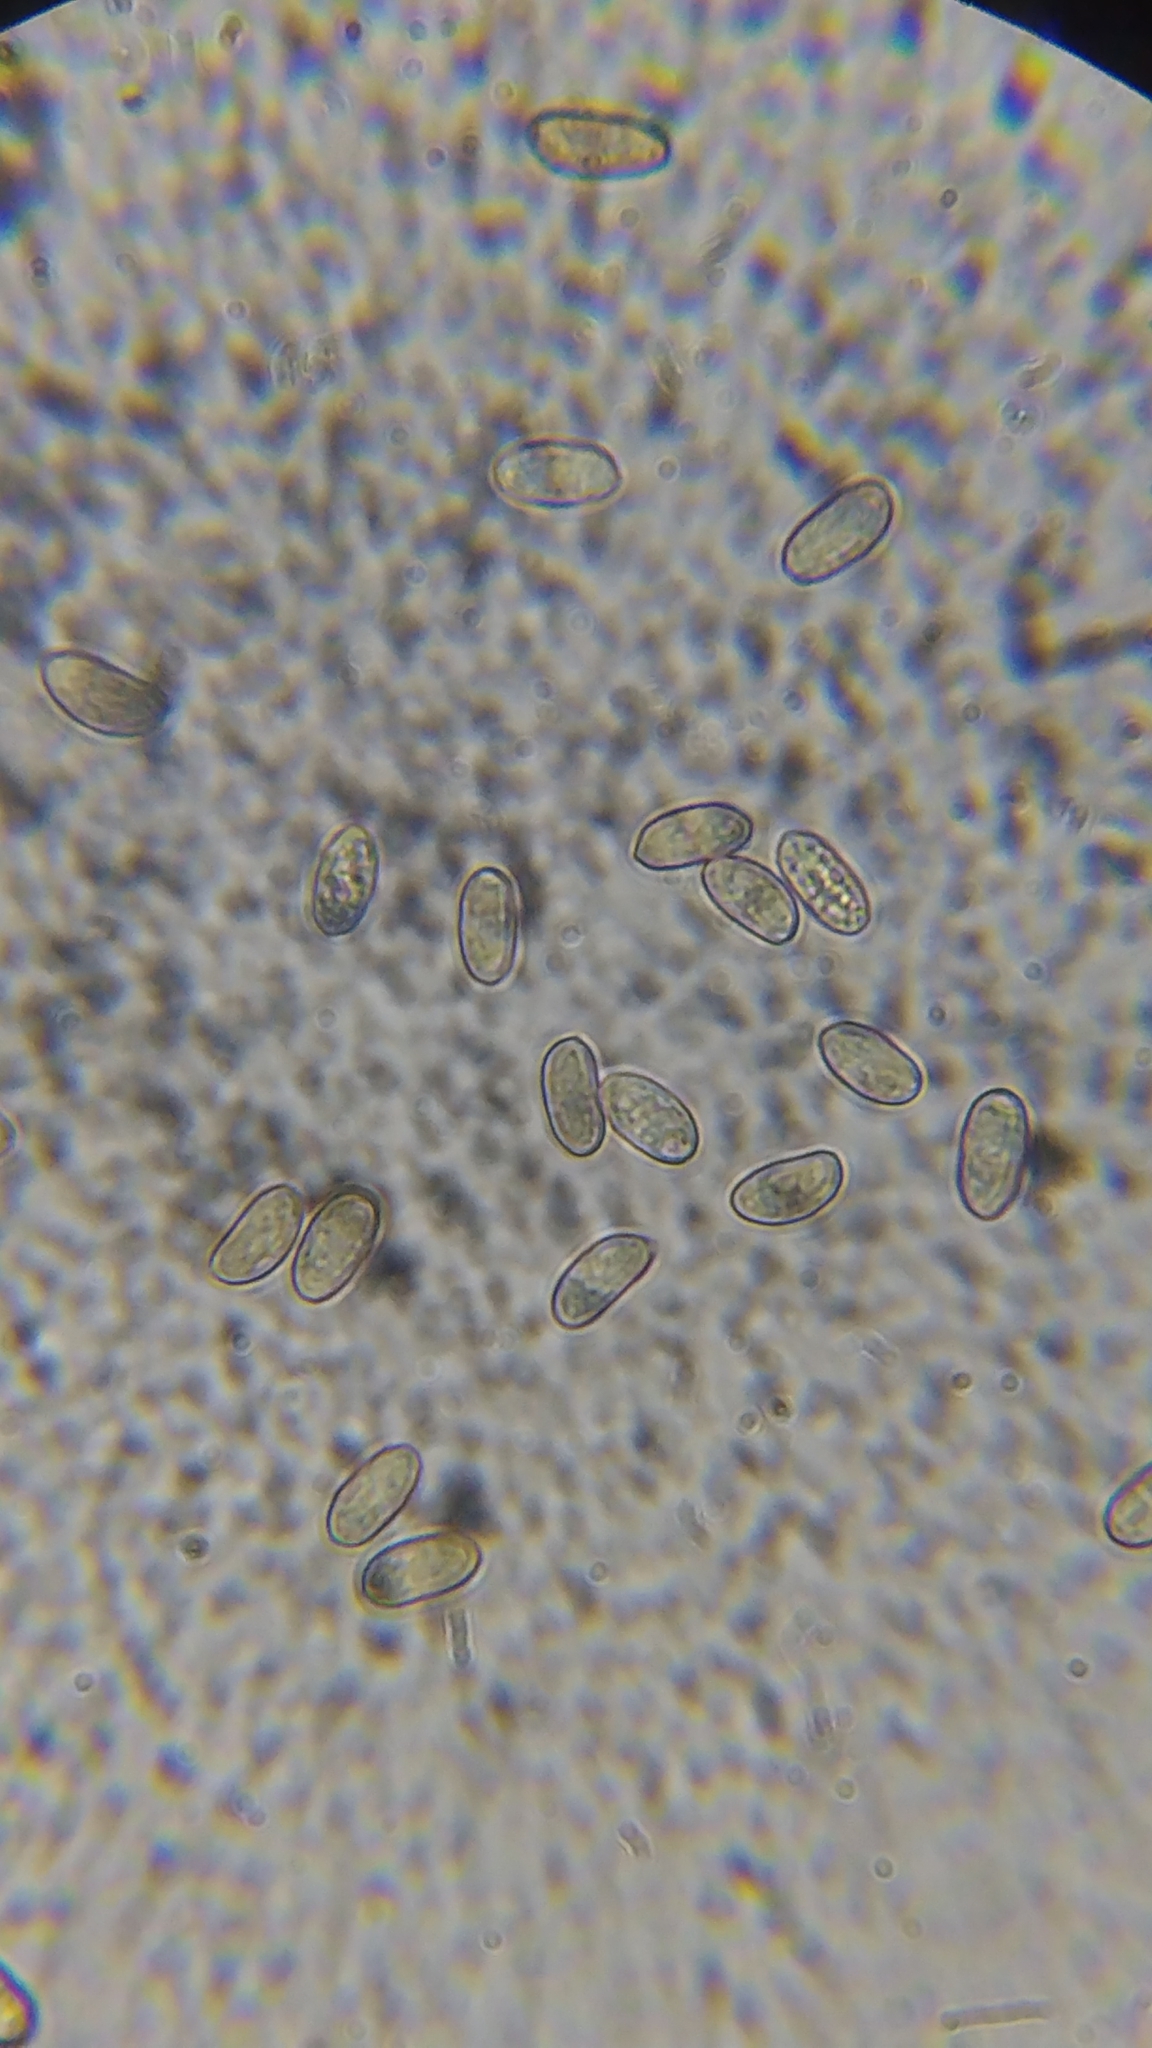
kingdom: Fungi
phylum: Basidiomycota
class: Agaricomycetes
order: Agaricales
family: Inocybaceae
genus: Mallocybe
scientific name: Mallocybe unicolor
